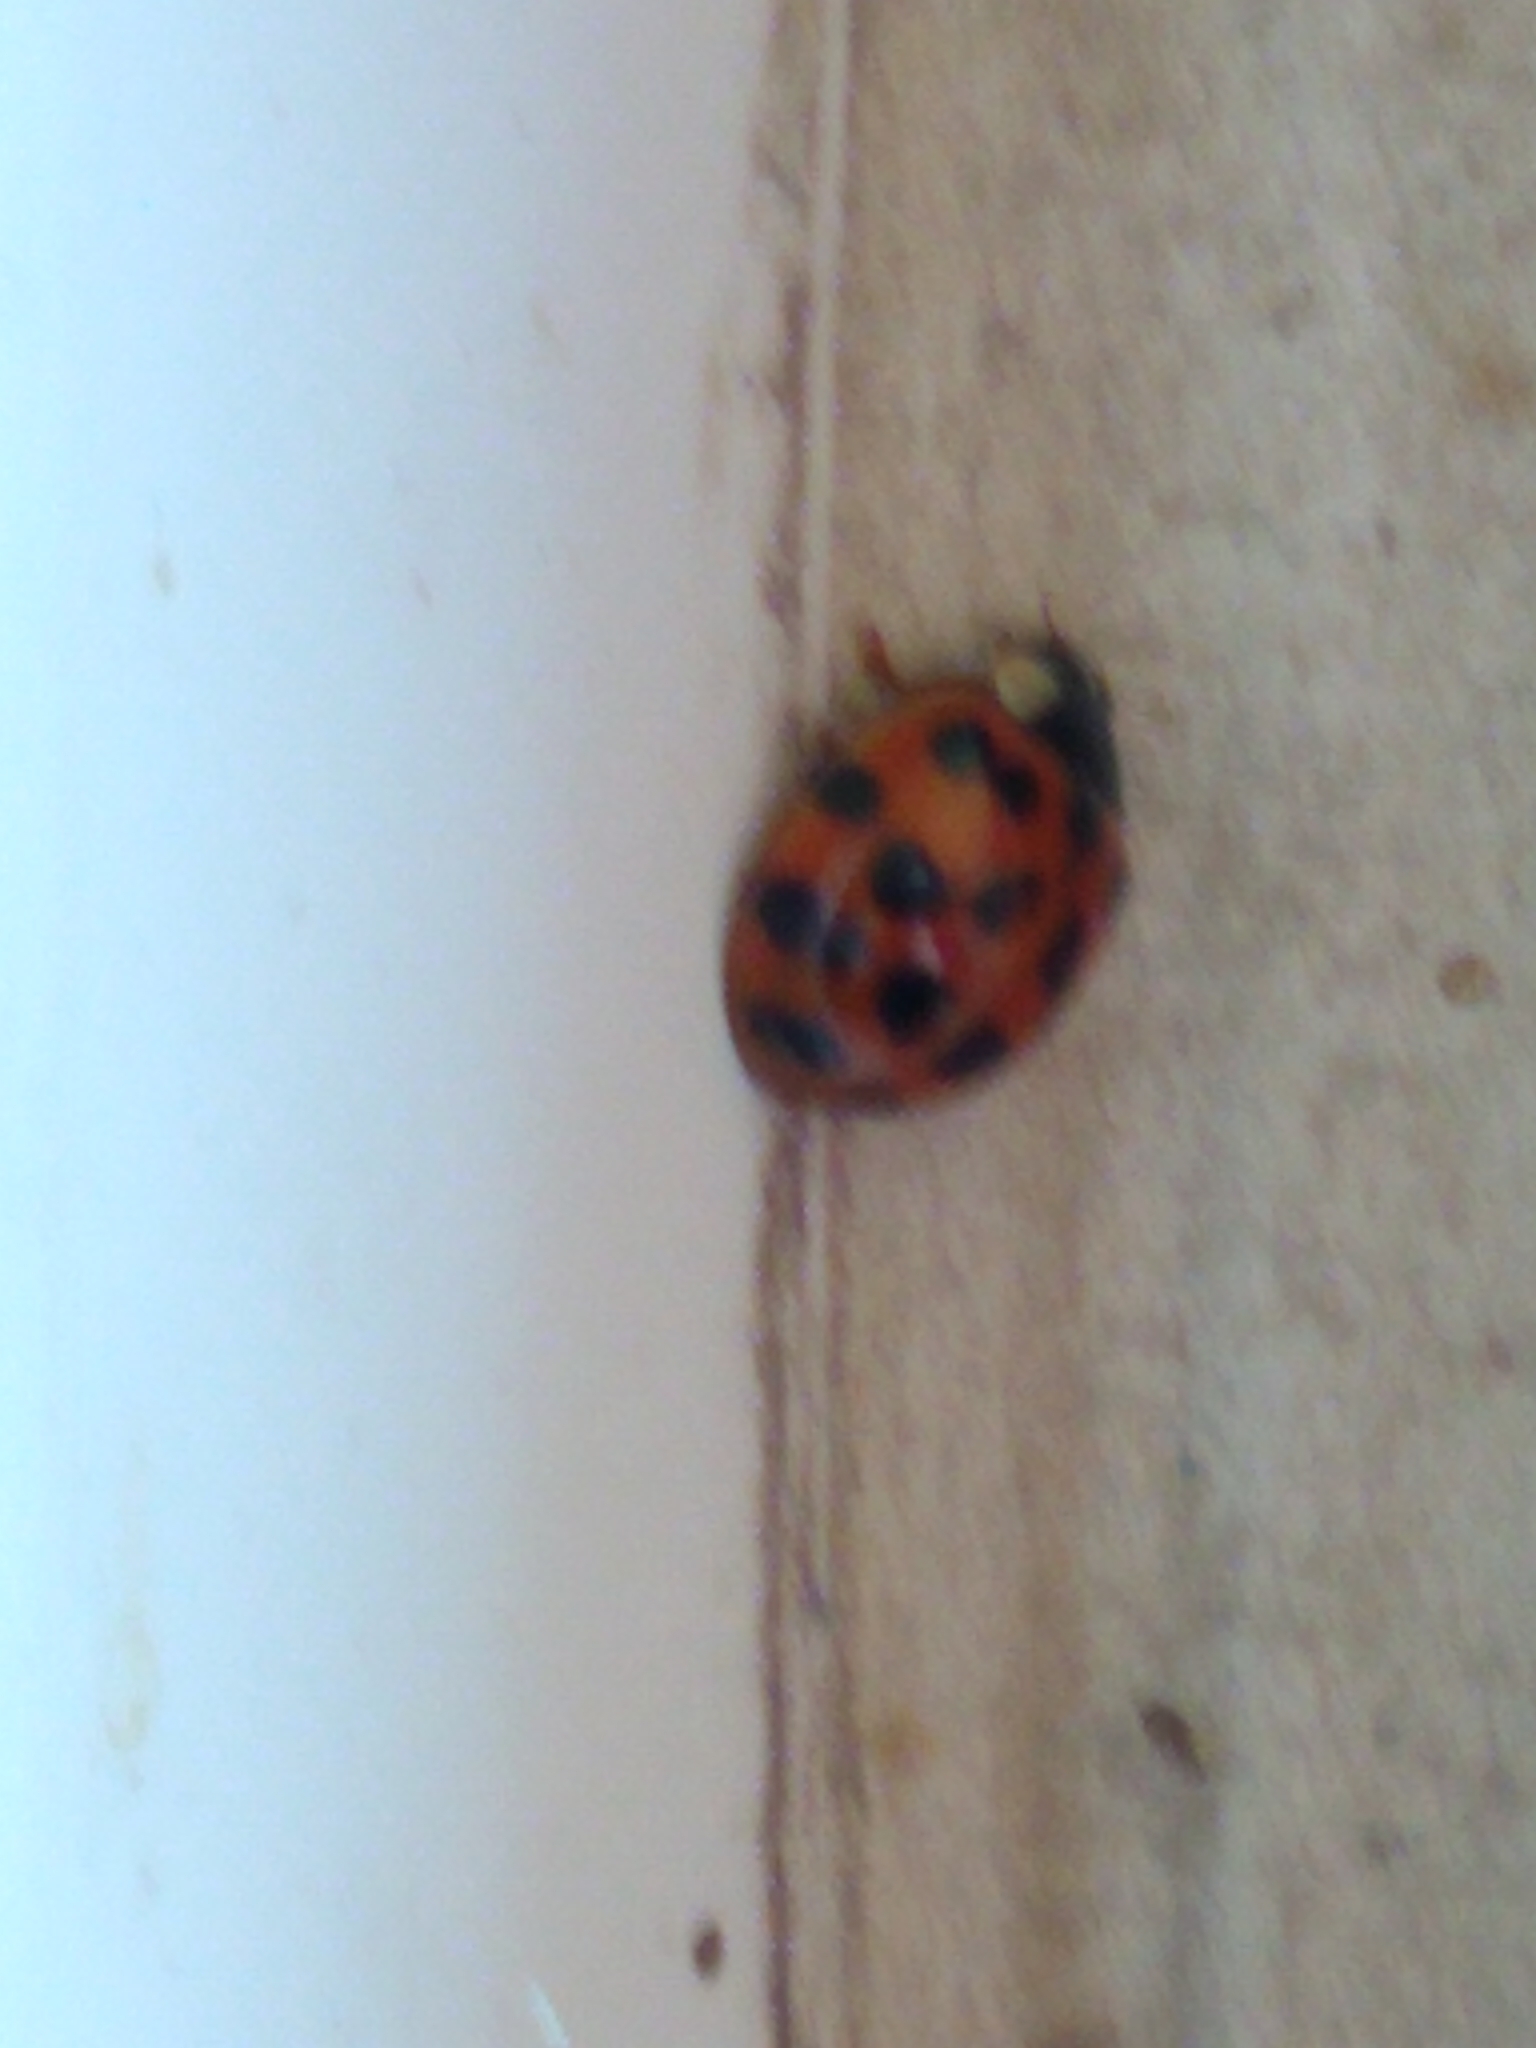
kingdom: Animalia
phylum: Arthropoda
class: Insecta
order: Coleoptera
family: Coccinellidae
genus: Harmonia
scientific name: Harmonia axyridis
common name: Harlequin ladybird
